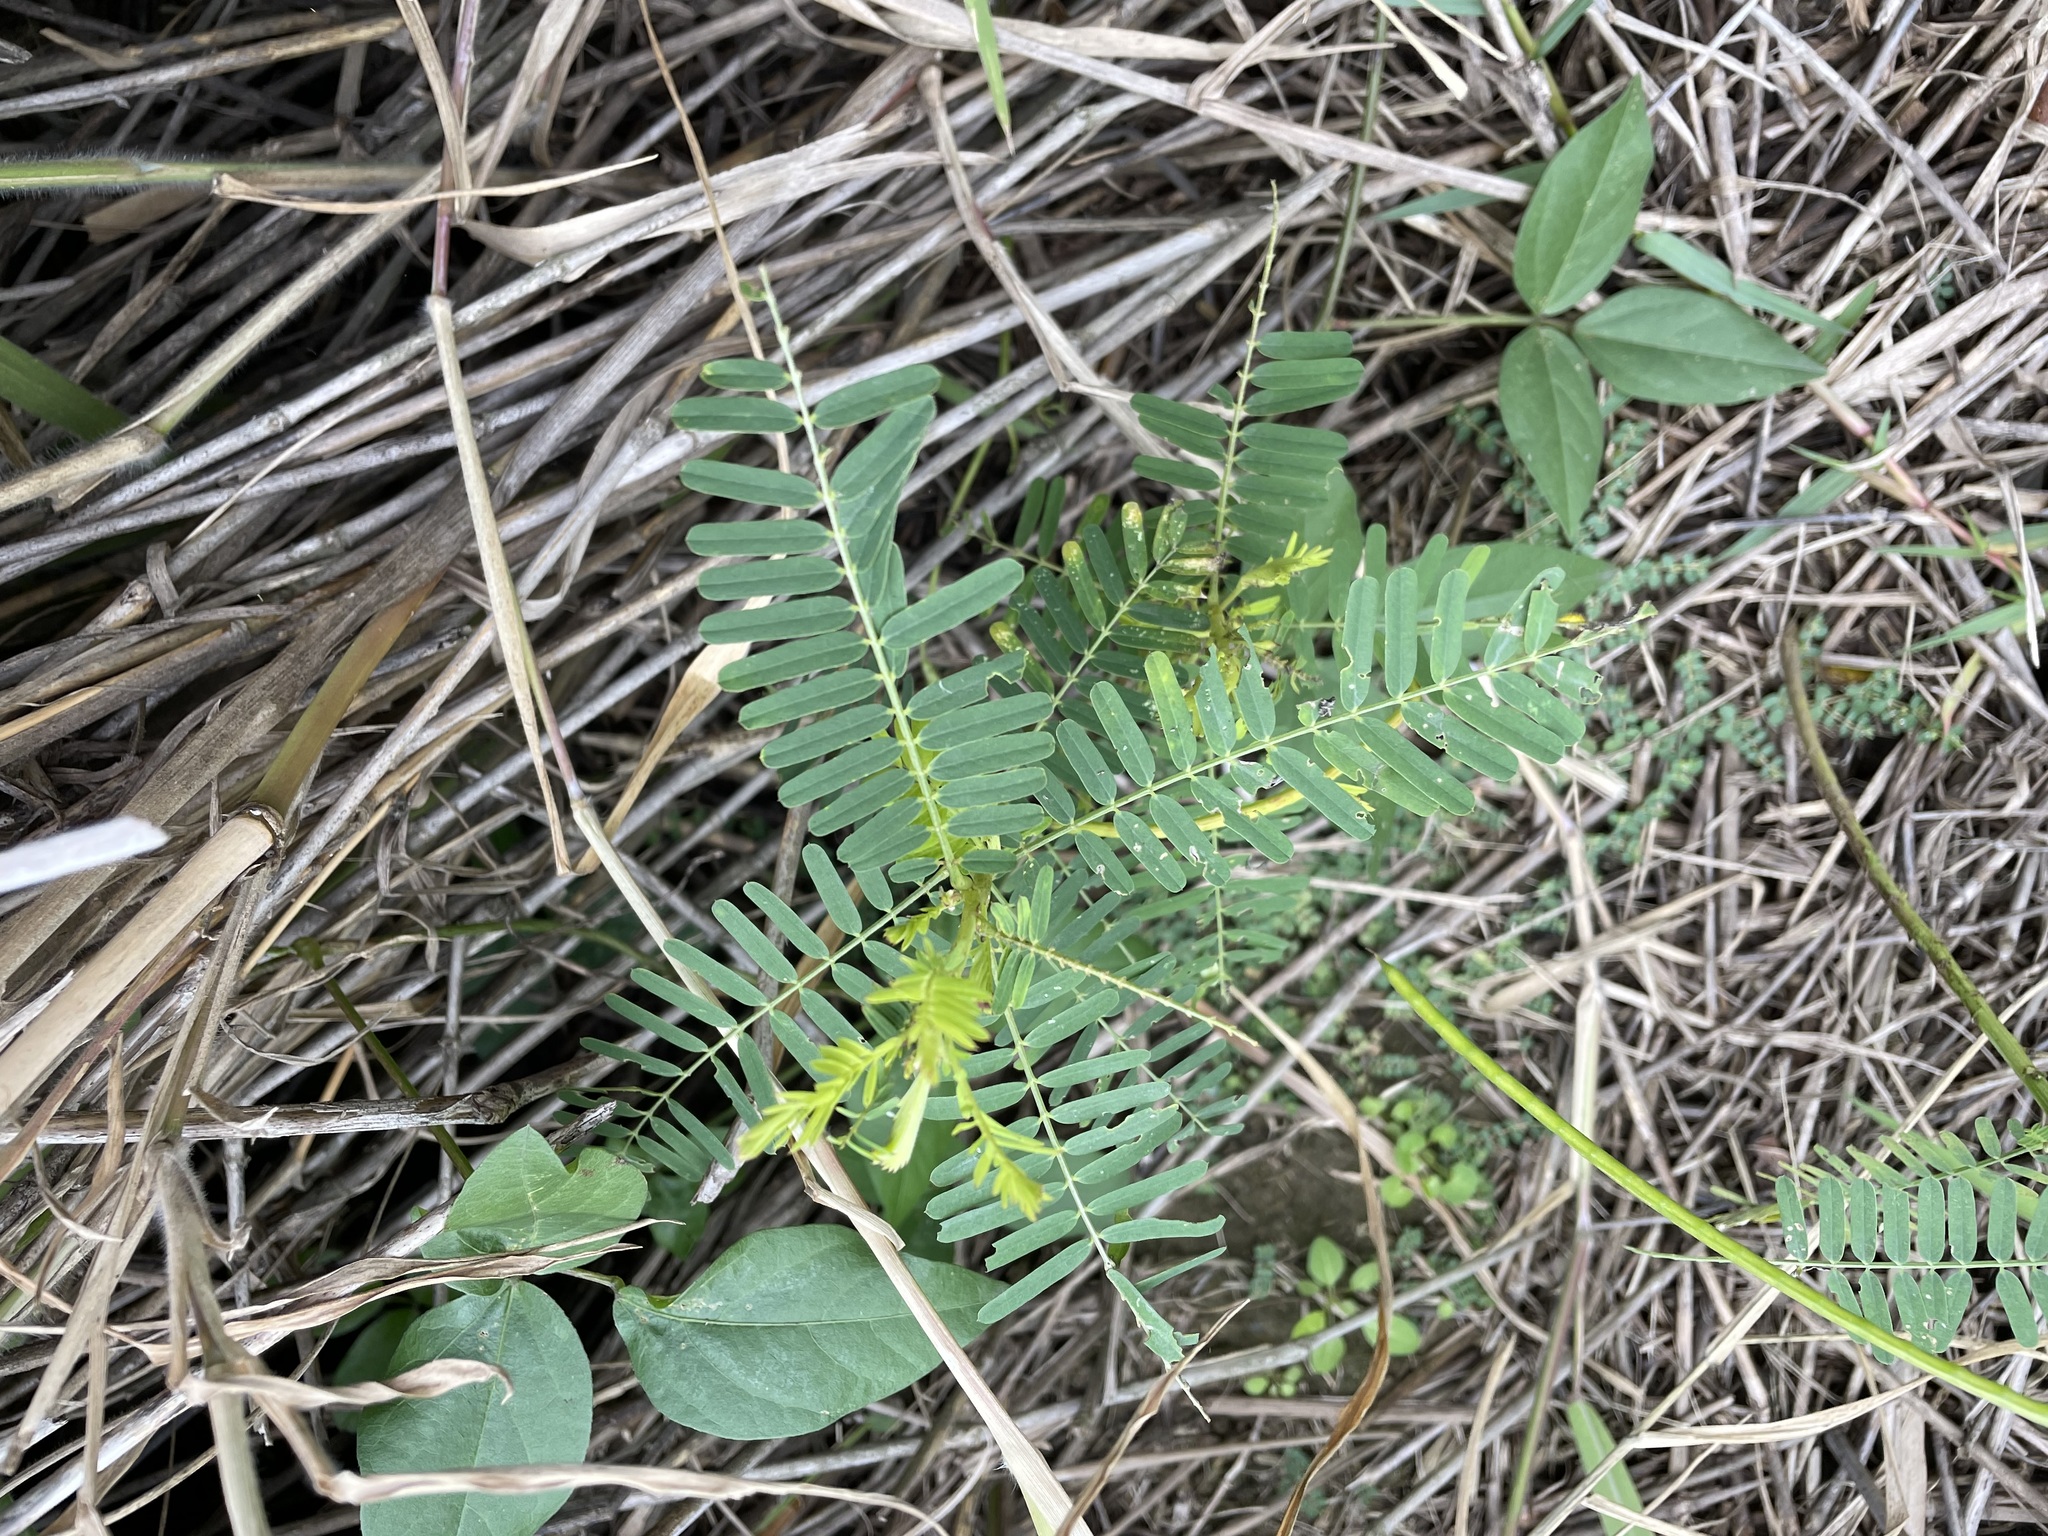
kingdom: Plantae
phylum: Tracheophyta
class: Magnoliopsida
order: Fabales
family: Fabaceae
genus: Sesbania
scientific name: Sesbania cannabina
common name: Canicha
